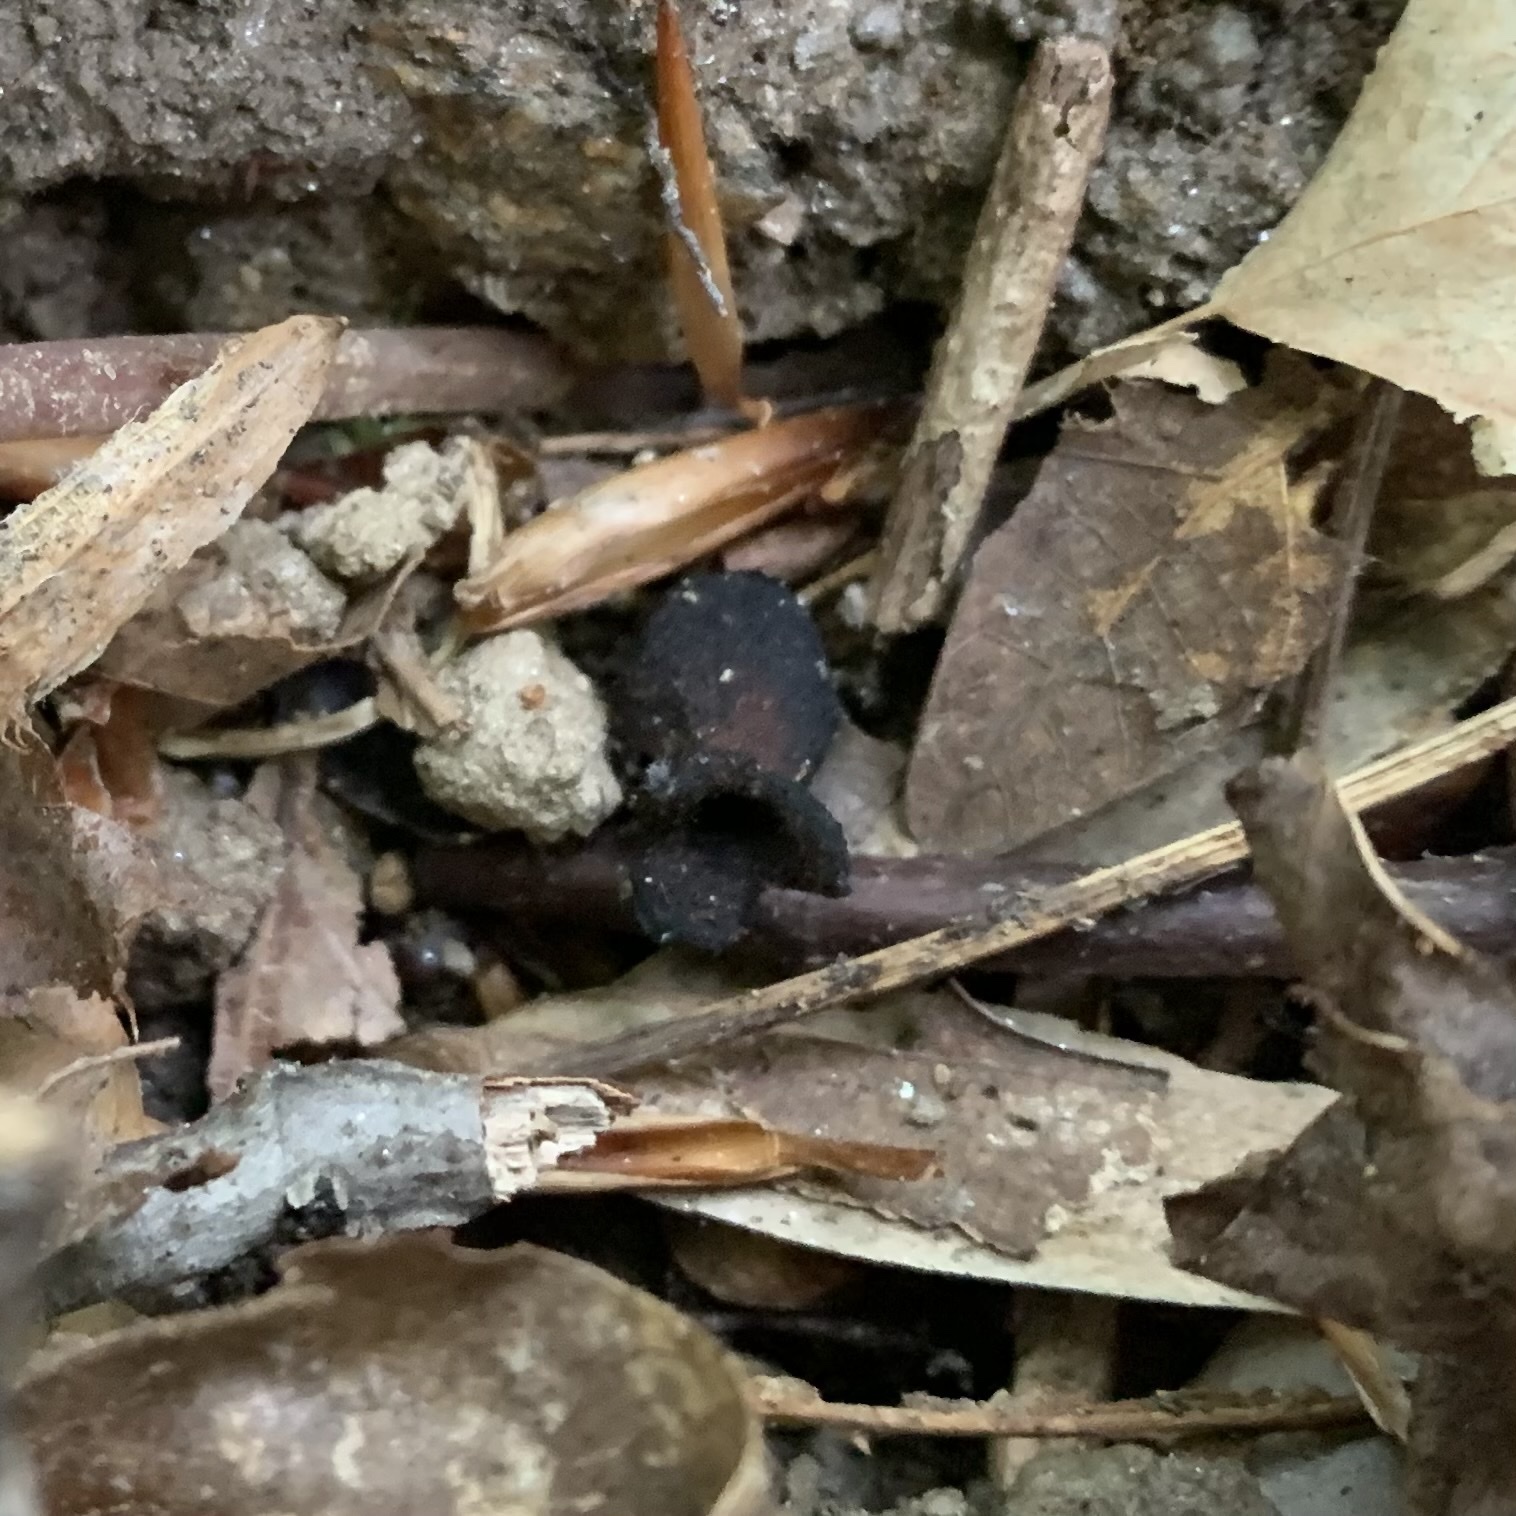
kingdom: Plantae
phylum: Tracheophyta
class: Magnoliopsida
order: Piperales
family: Aristolochiaceae
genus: Hexastylis
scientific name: Hexastylis arifolia
